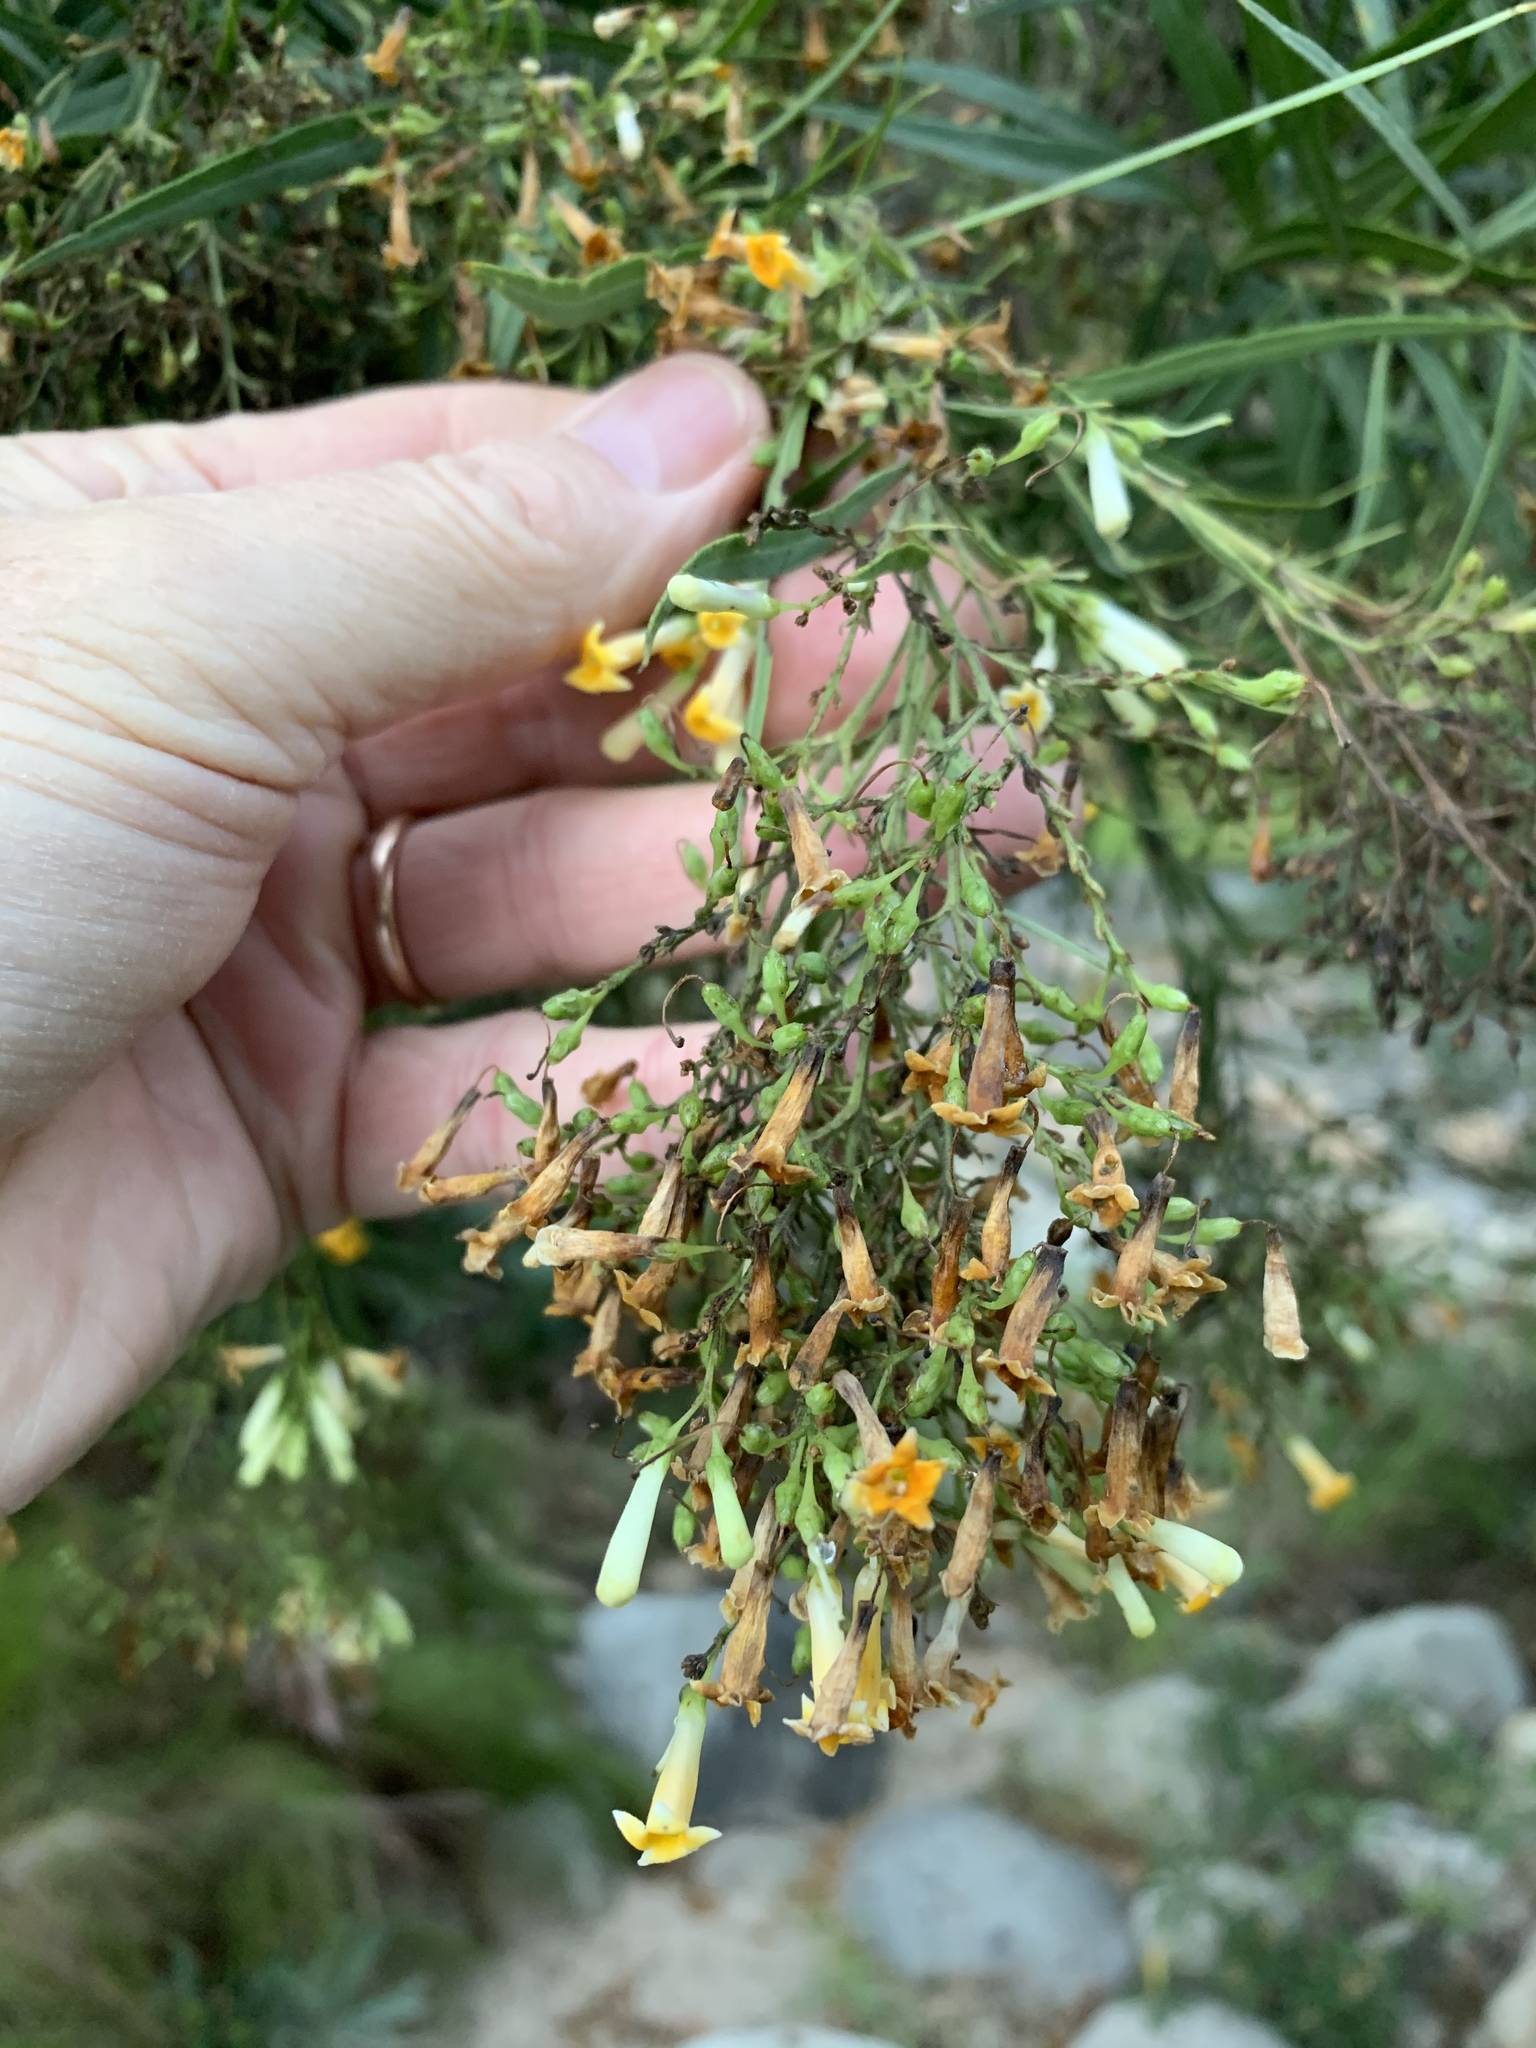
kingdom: Plantae
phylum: Tracheophyta
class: Magnoliopsida
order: Lamiales
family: Scrophulariaceae
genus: Freylinia
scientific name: Freylinia lanceolata
